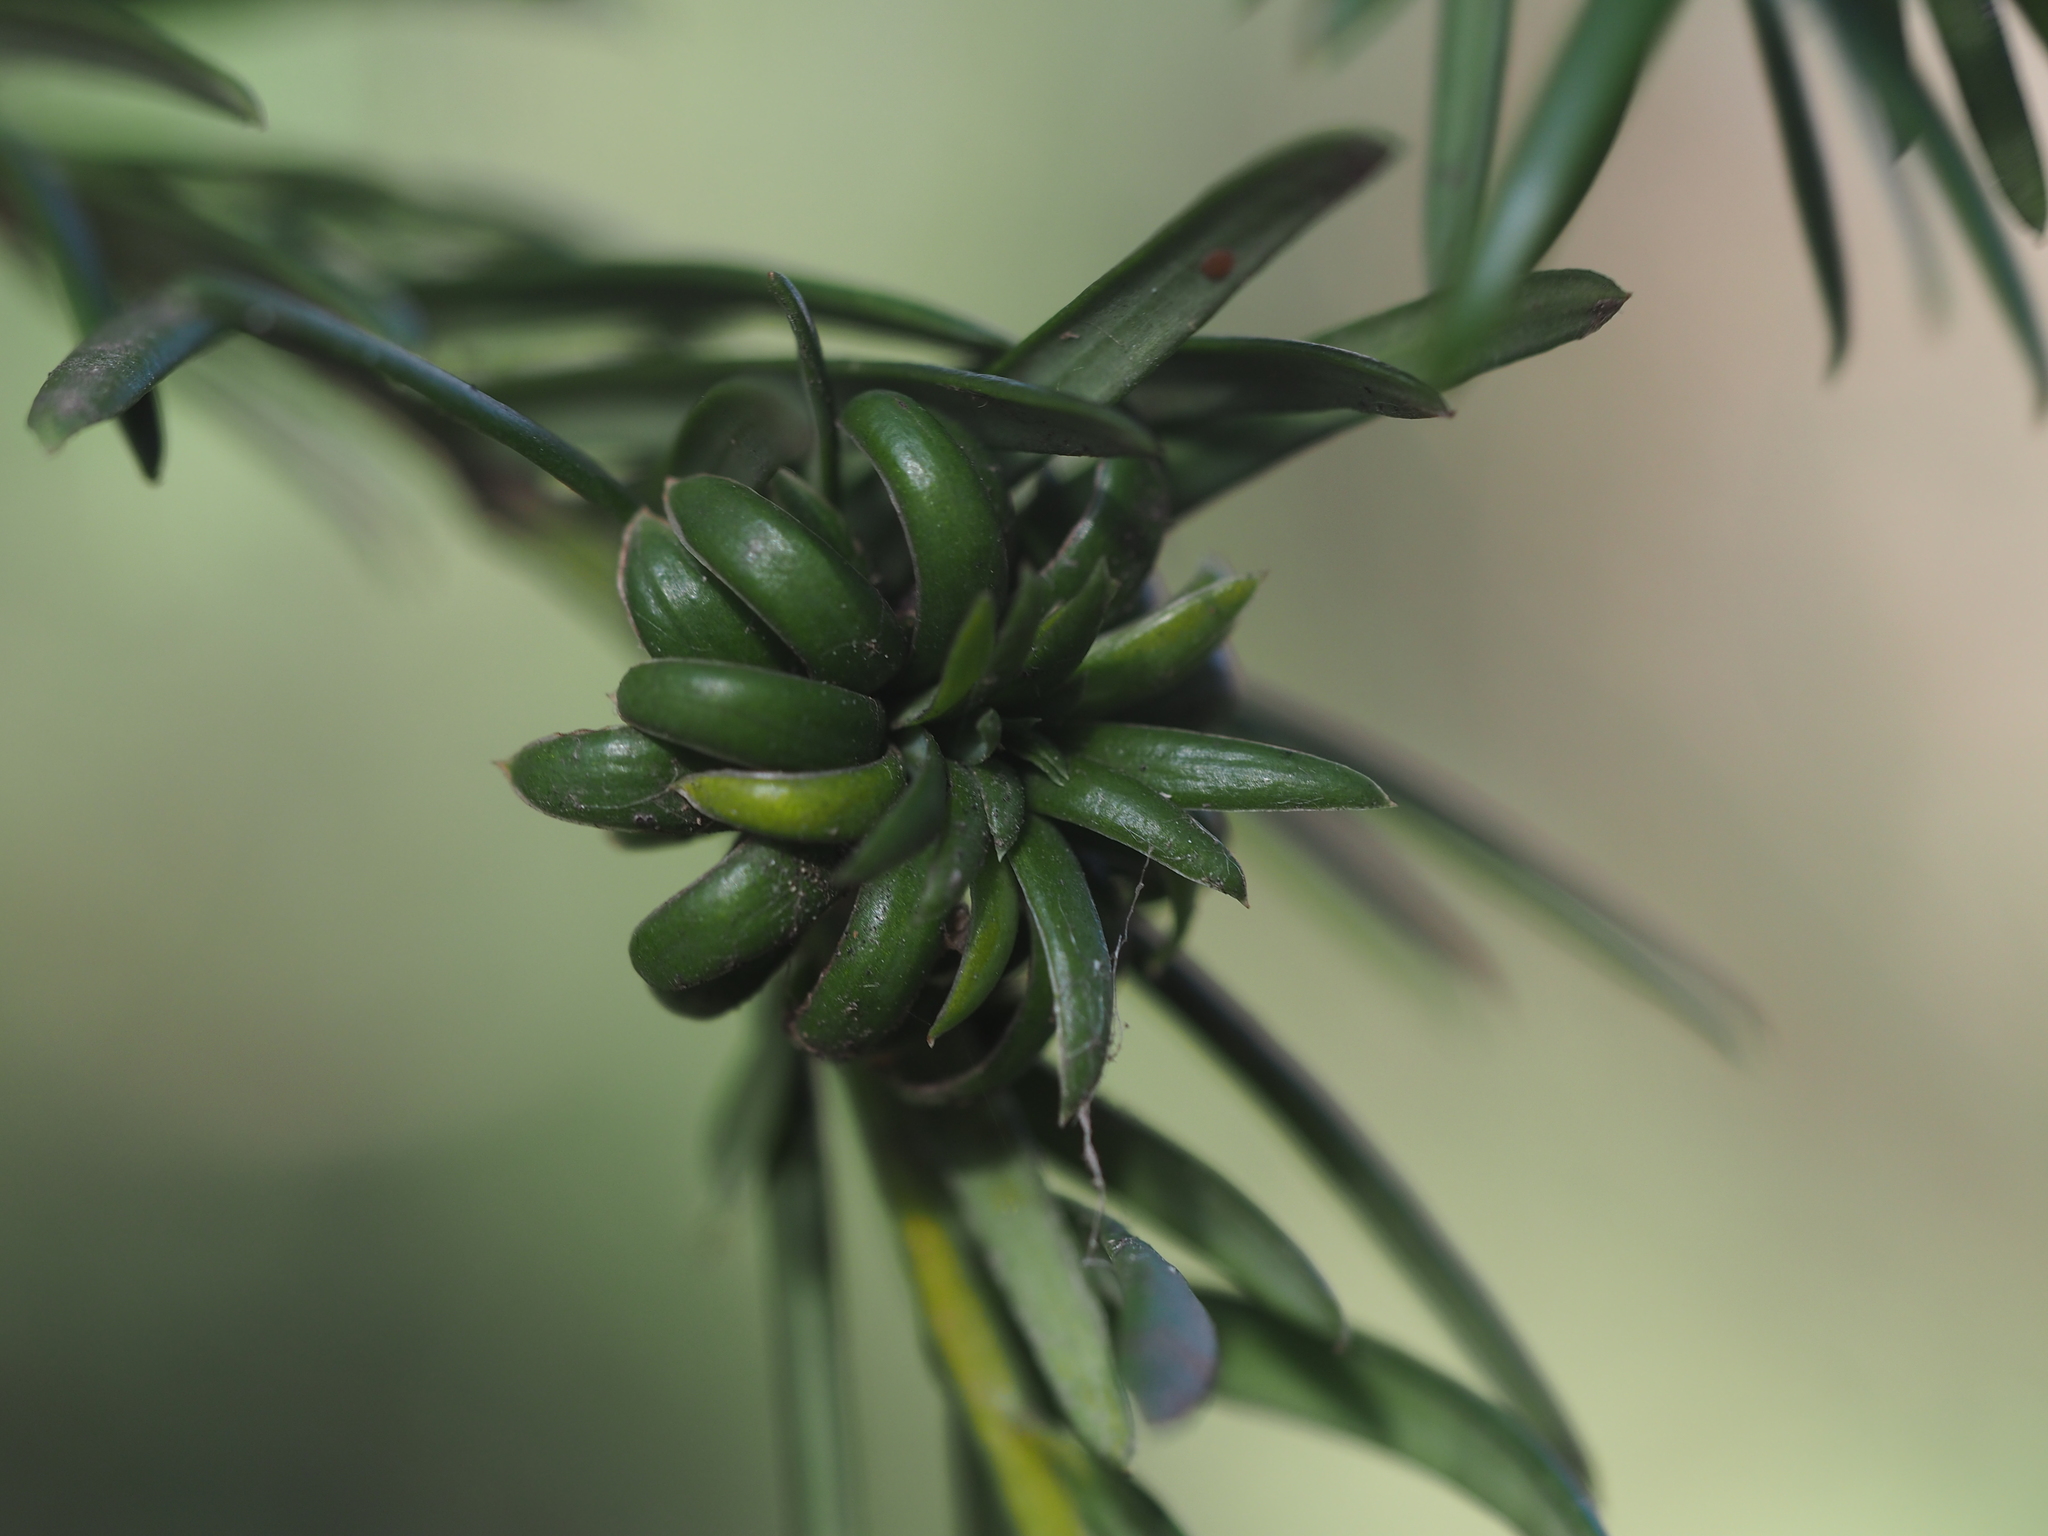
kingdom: Animalia
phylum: Arthropoda
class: Insecta
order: Diptera
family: Cecidomyiidae
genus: Taxomyia
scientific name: Taxomyia taxi
